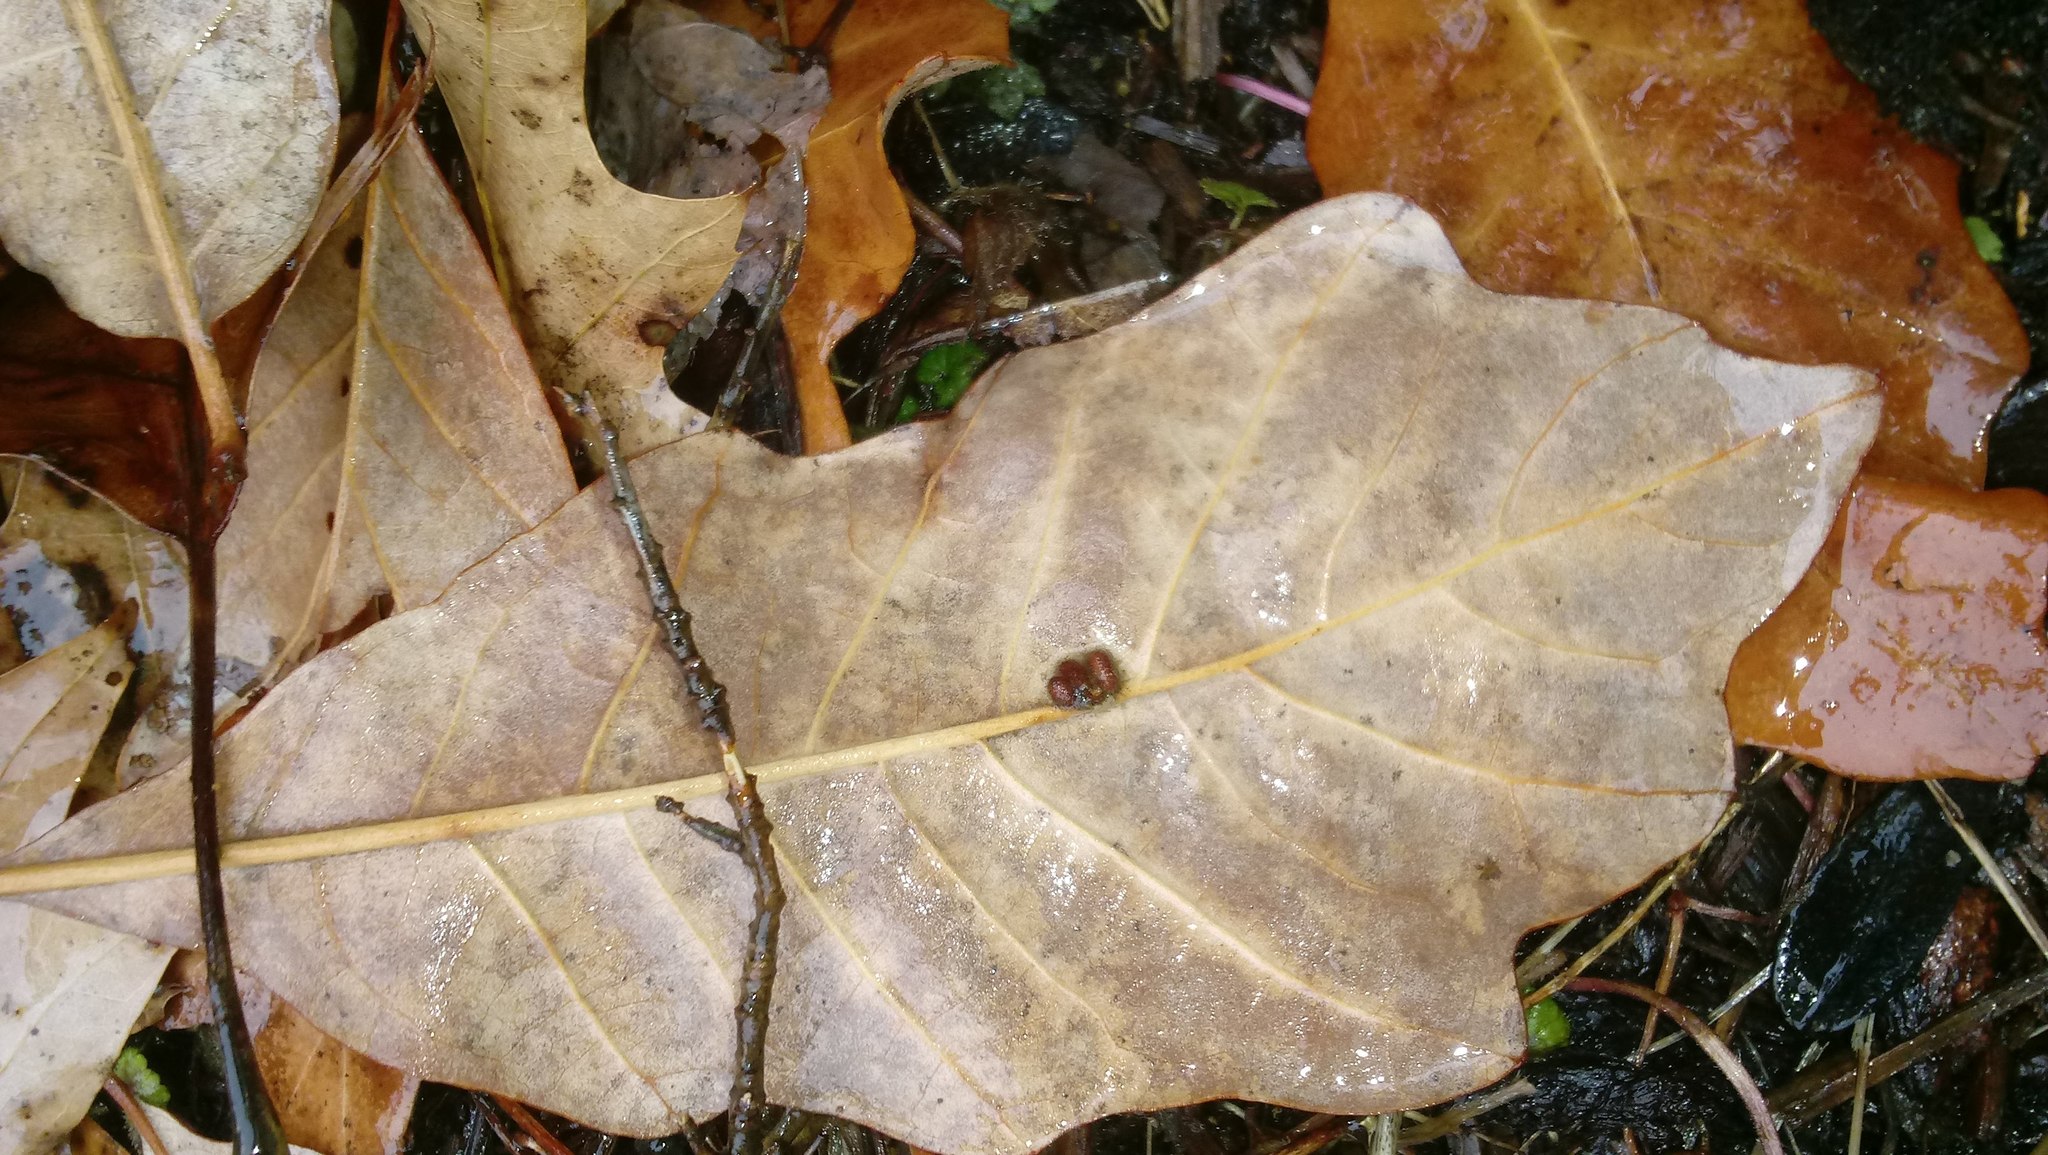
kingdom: Animalia
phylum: Arthropoda
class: Insecta
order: Hymenoptera
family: Cynipidae
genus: Andricus
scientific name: Andricus Druon ignotum
